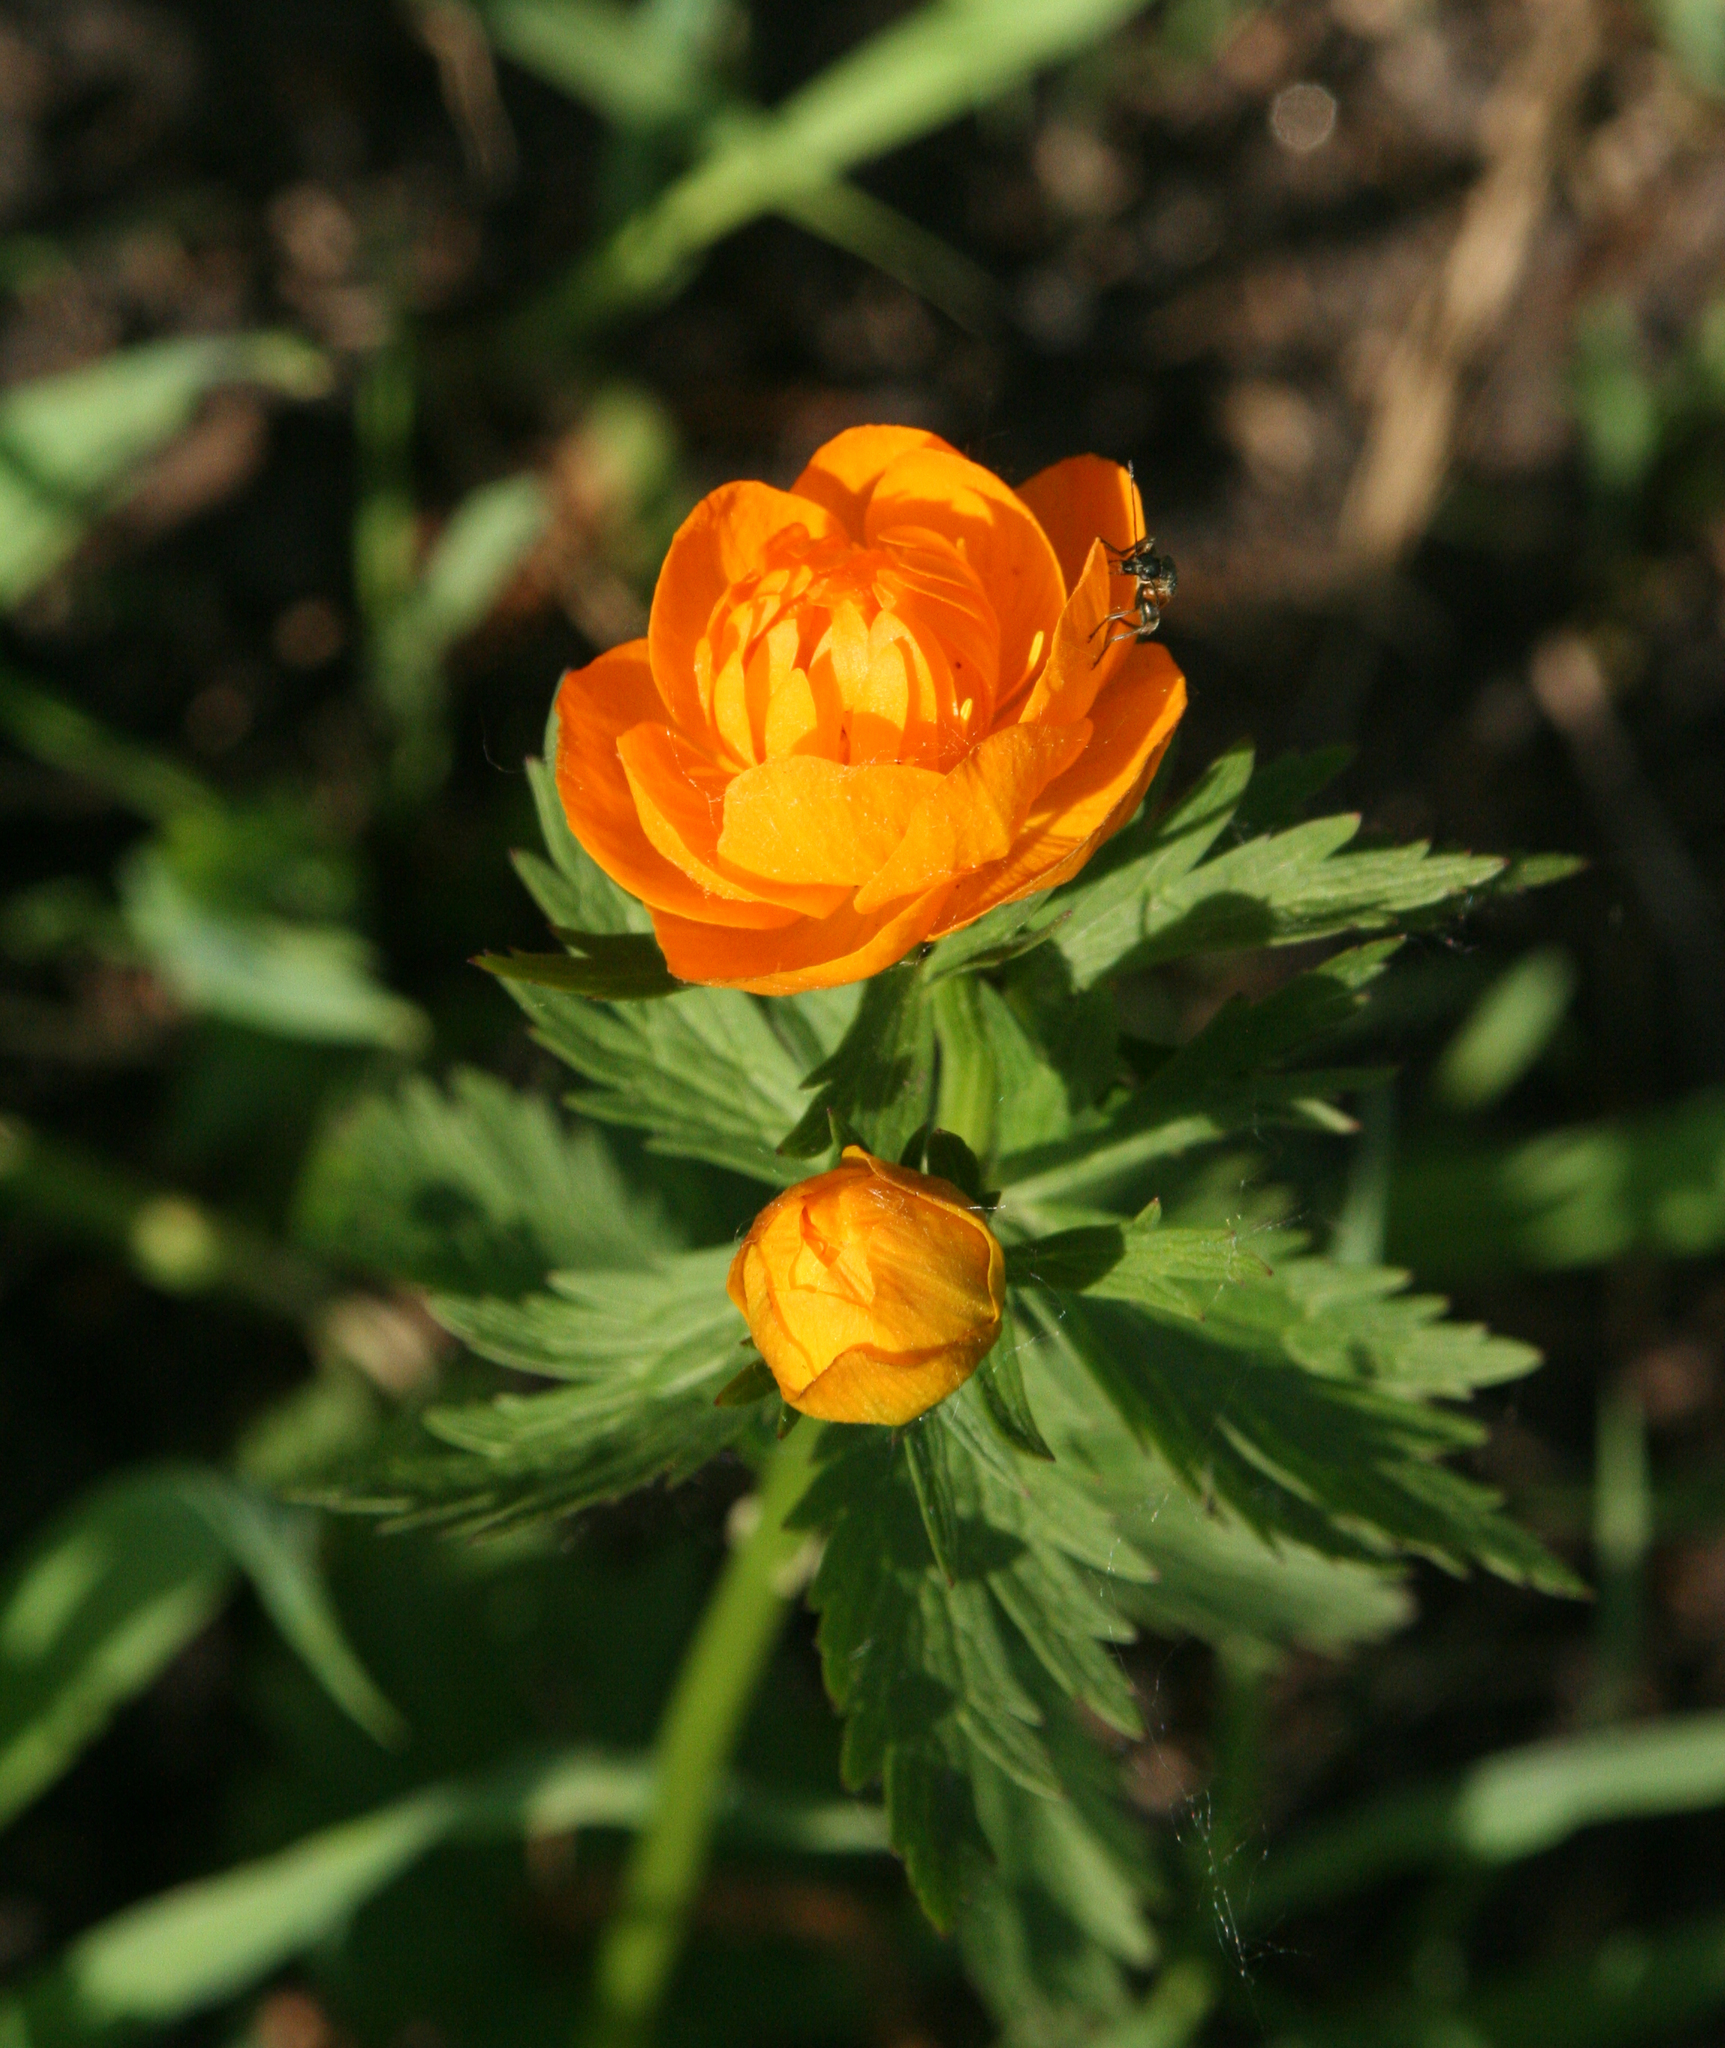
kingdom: Plantae
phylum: Tracheophyta
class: Magnoliopsida
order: Ranunculales
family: Ranunculaceae
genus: Trollius
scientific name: Trollius asiaticus
